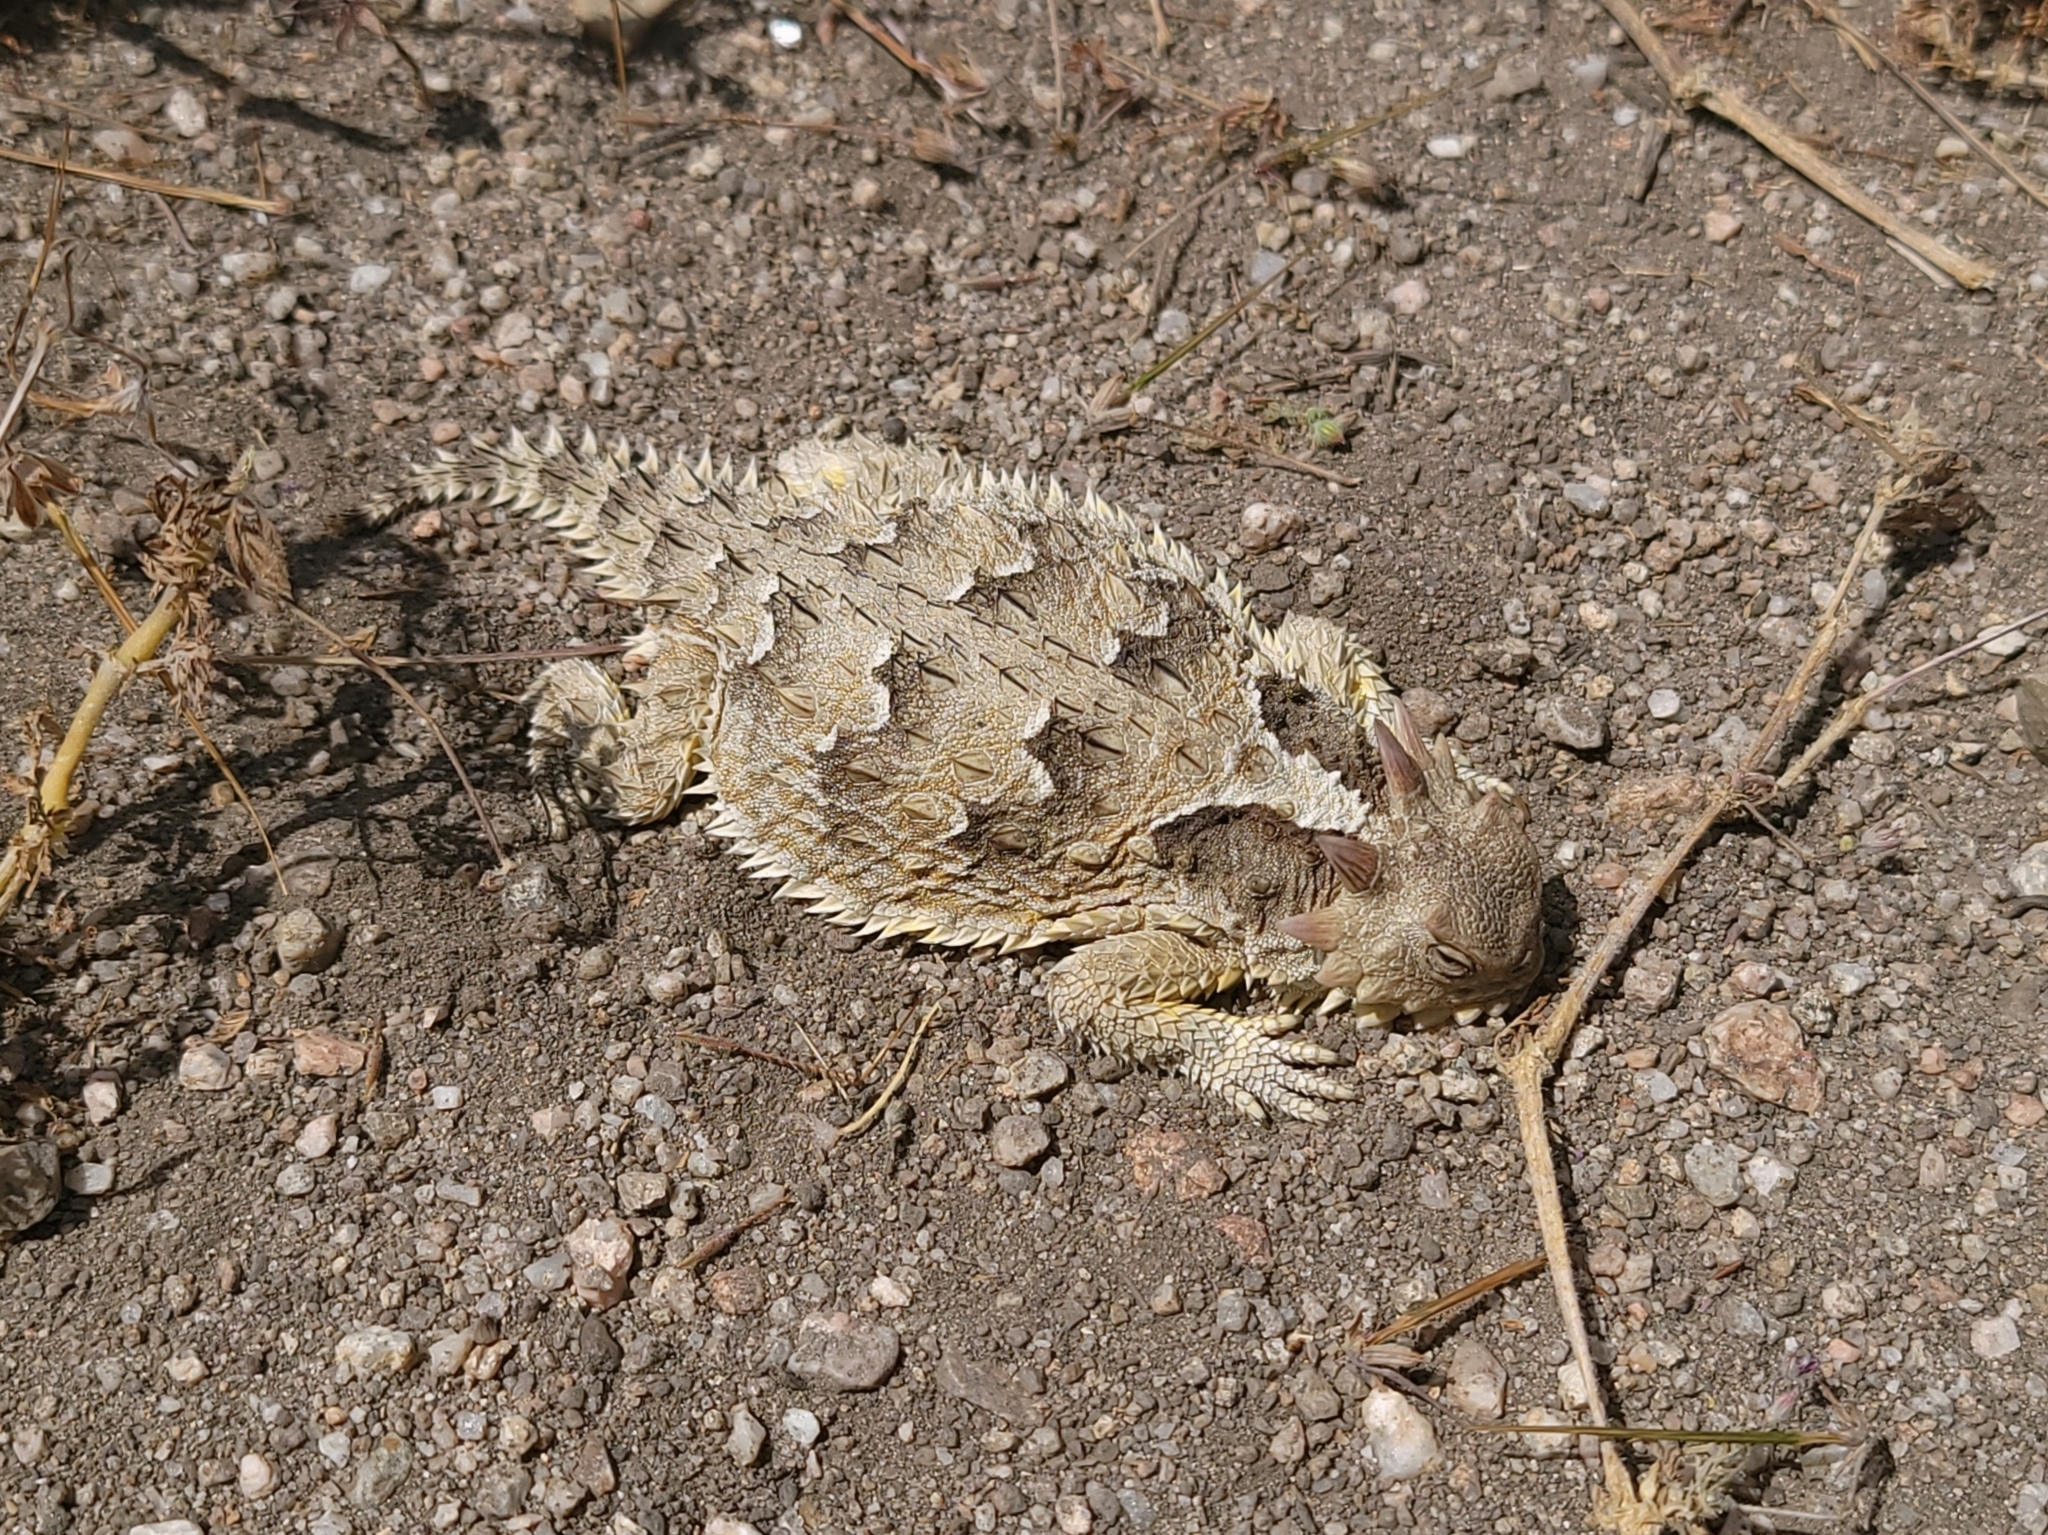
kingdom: Animalia
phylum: Chordata
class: Squamata
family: Phrynosomatidae
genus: Phrynosoma
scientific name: Phrynosoma blainvillii
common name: San diego horned lizard
